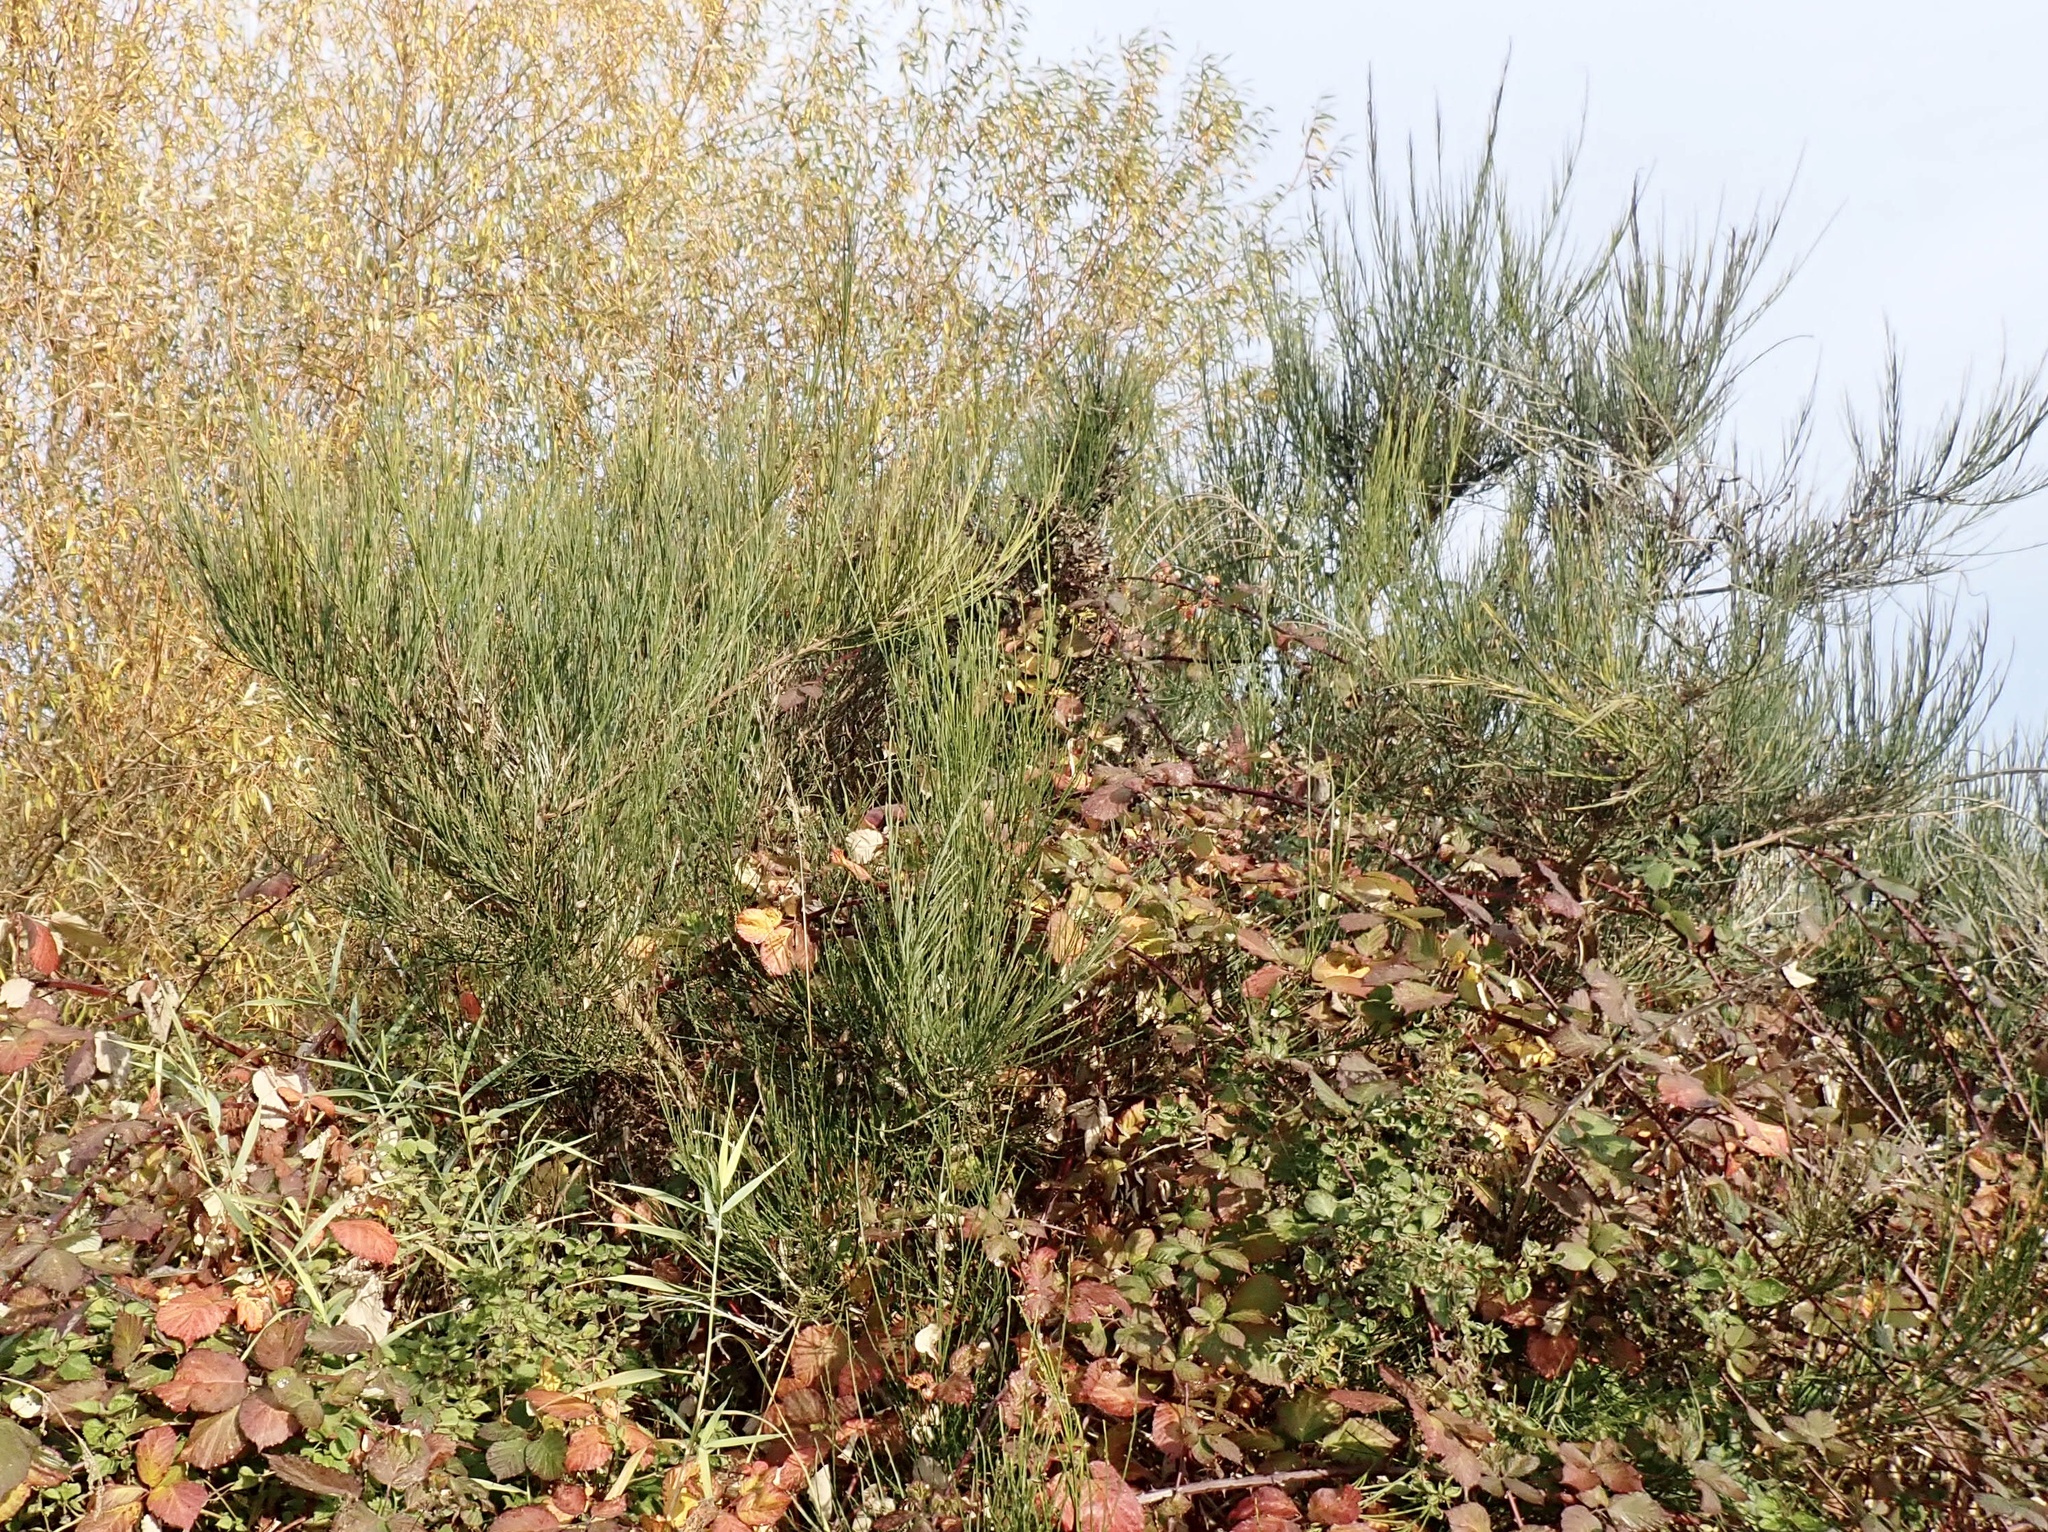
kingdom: Plantae
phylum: Tracheophyta
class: Magnoliopsida
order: Fabales
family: Fabaceae
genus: Cytisus
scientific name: Cytisus scoparius
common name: Scotch broom
